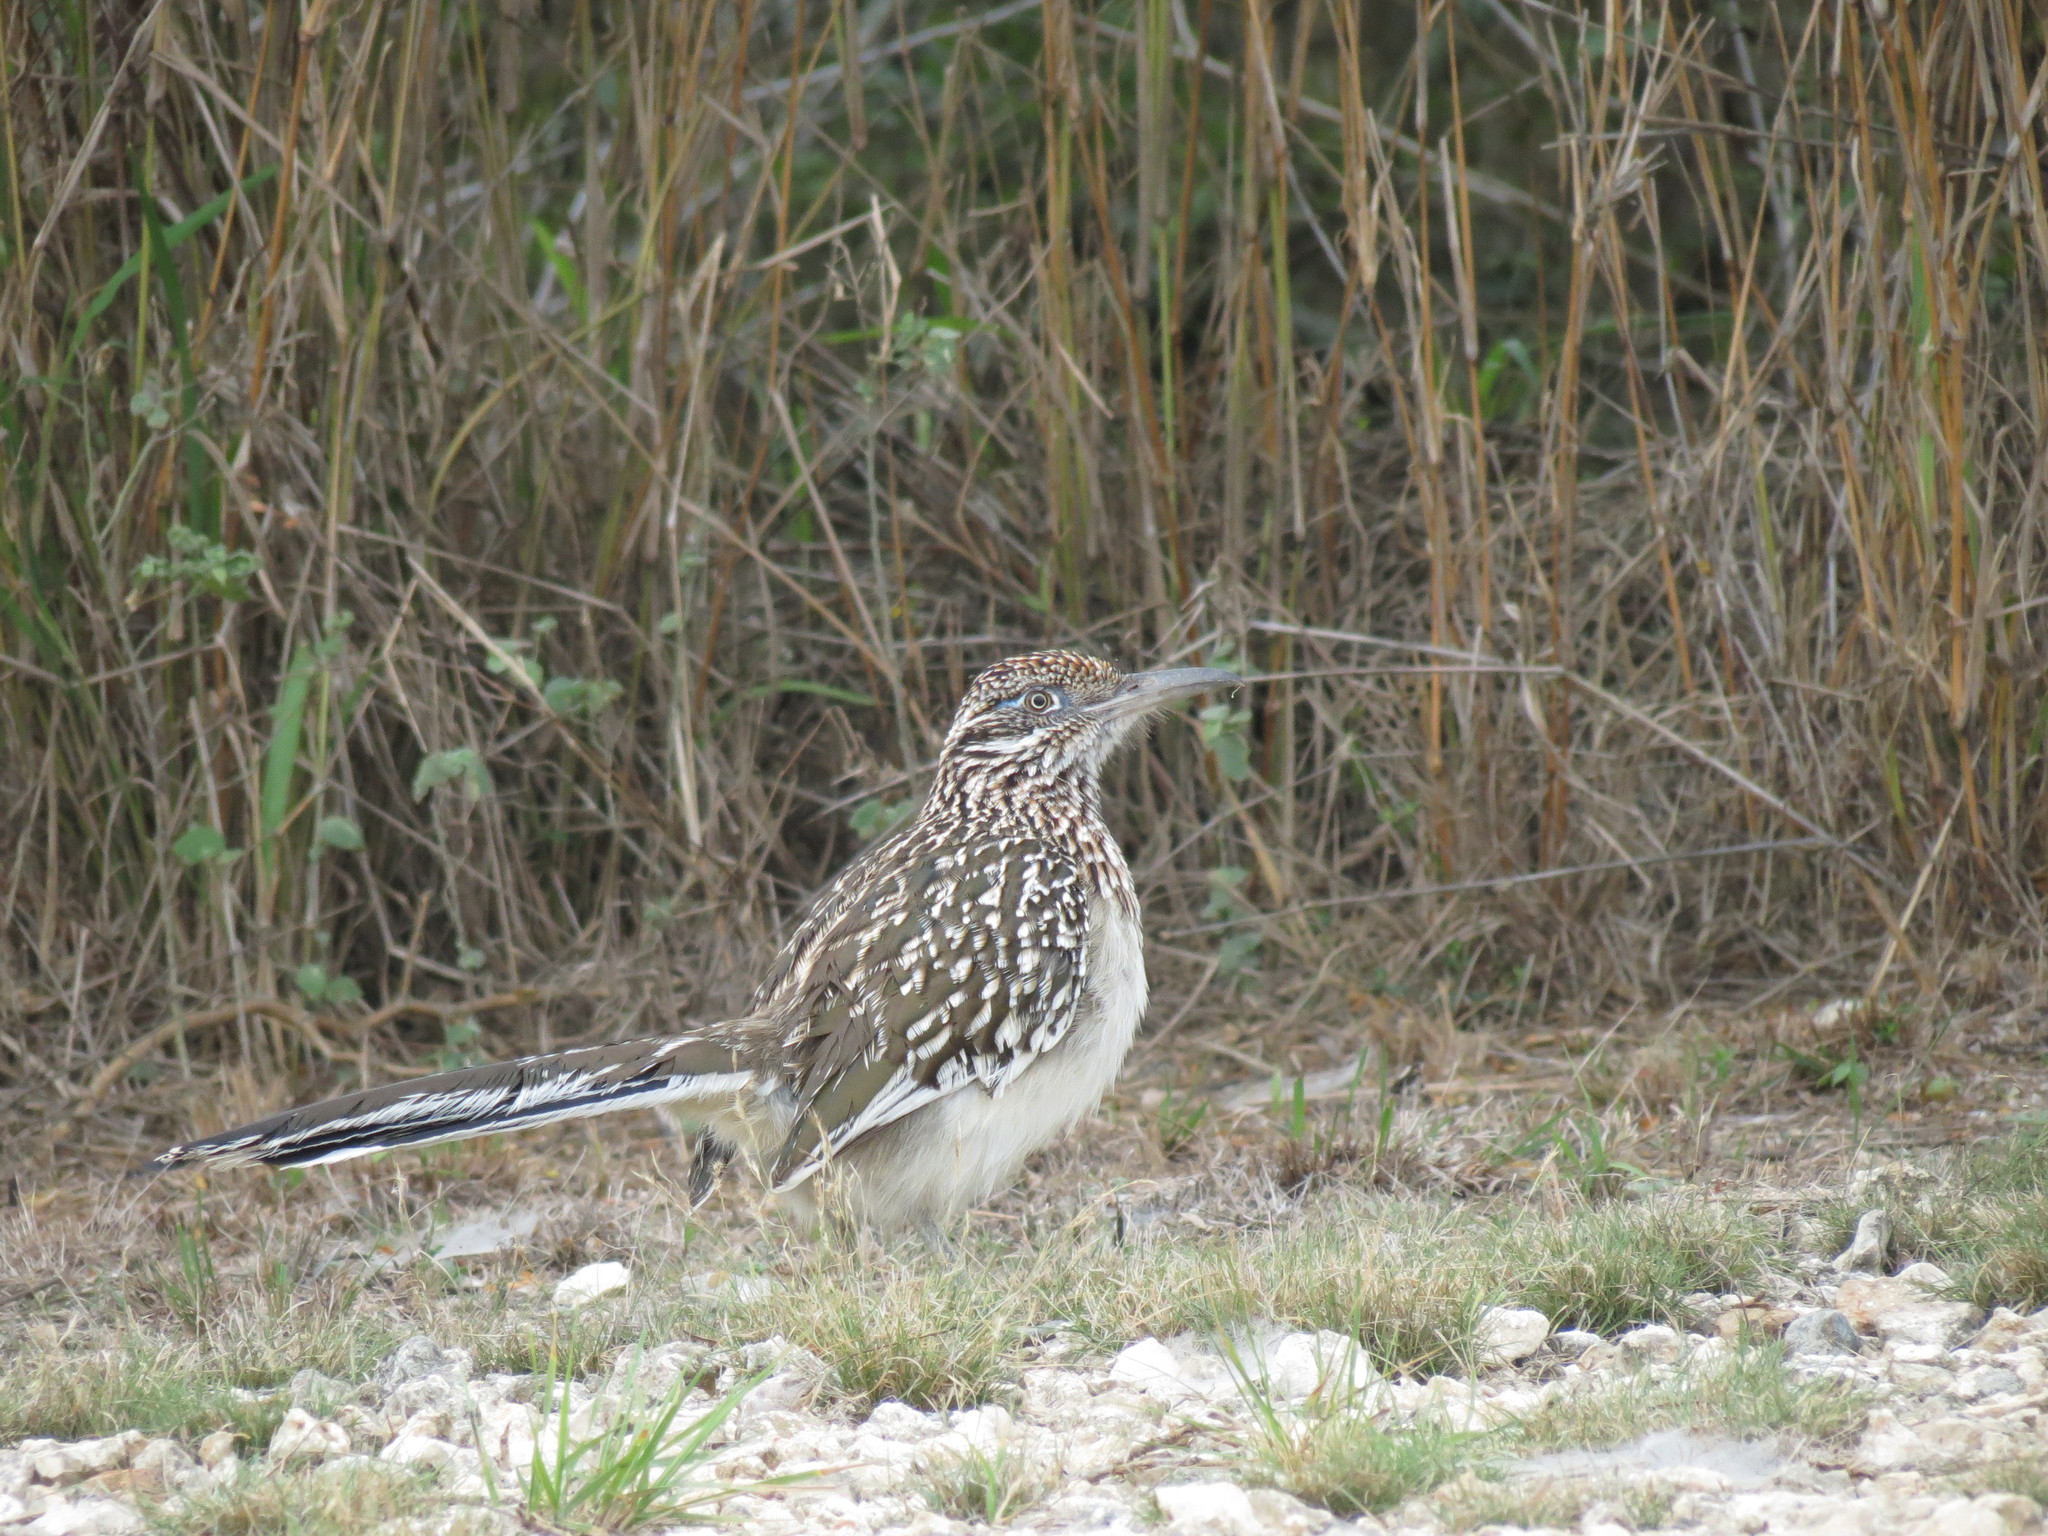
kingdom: Animalia
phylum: Chordata
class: Aves
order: Cuculiformes
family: Cuculidae
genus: Geococcyx
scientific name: Geococcyx californianus
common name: Greater roadrunner
